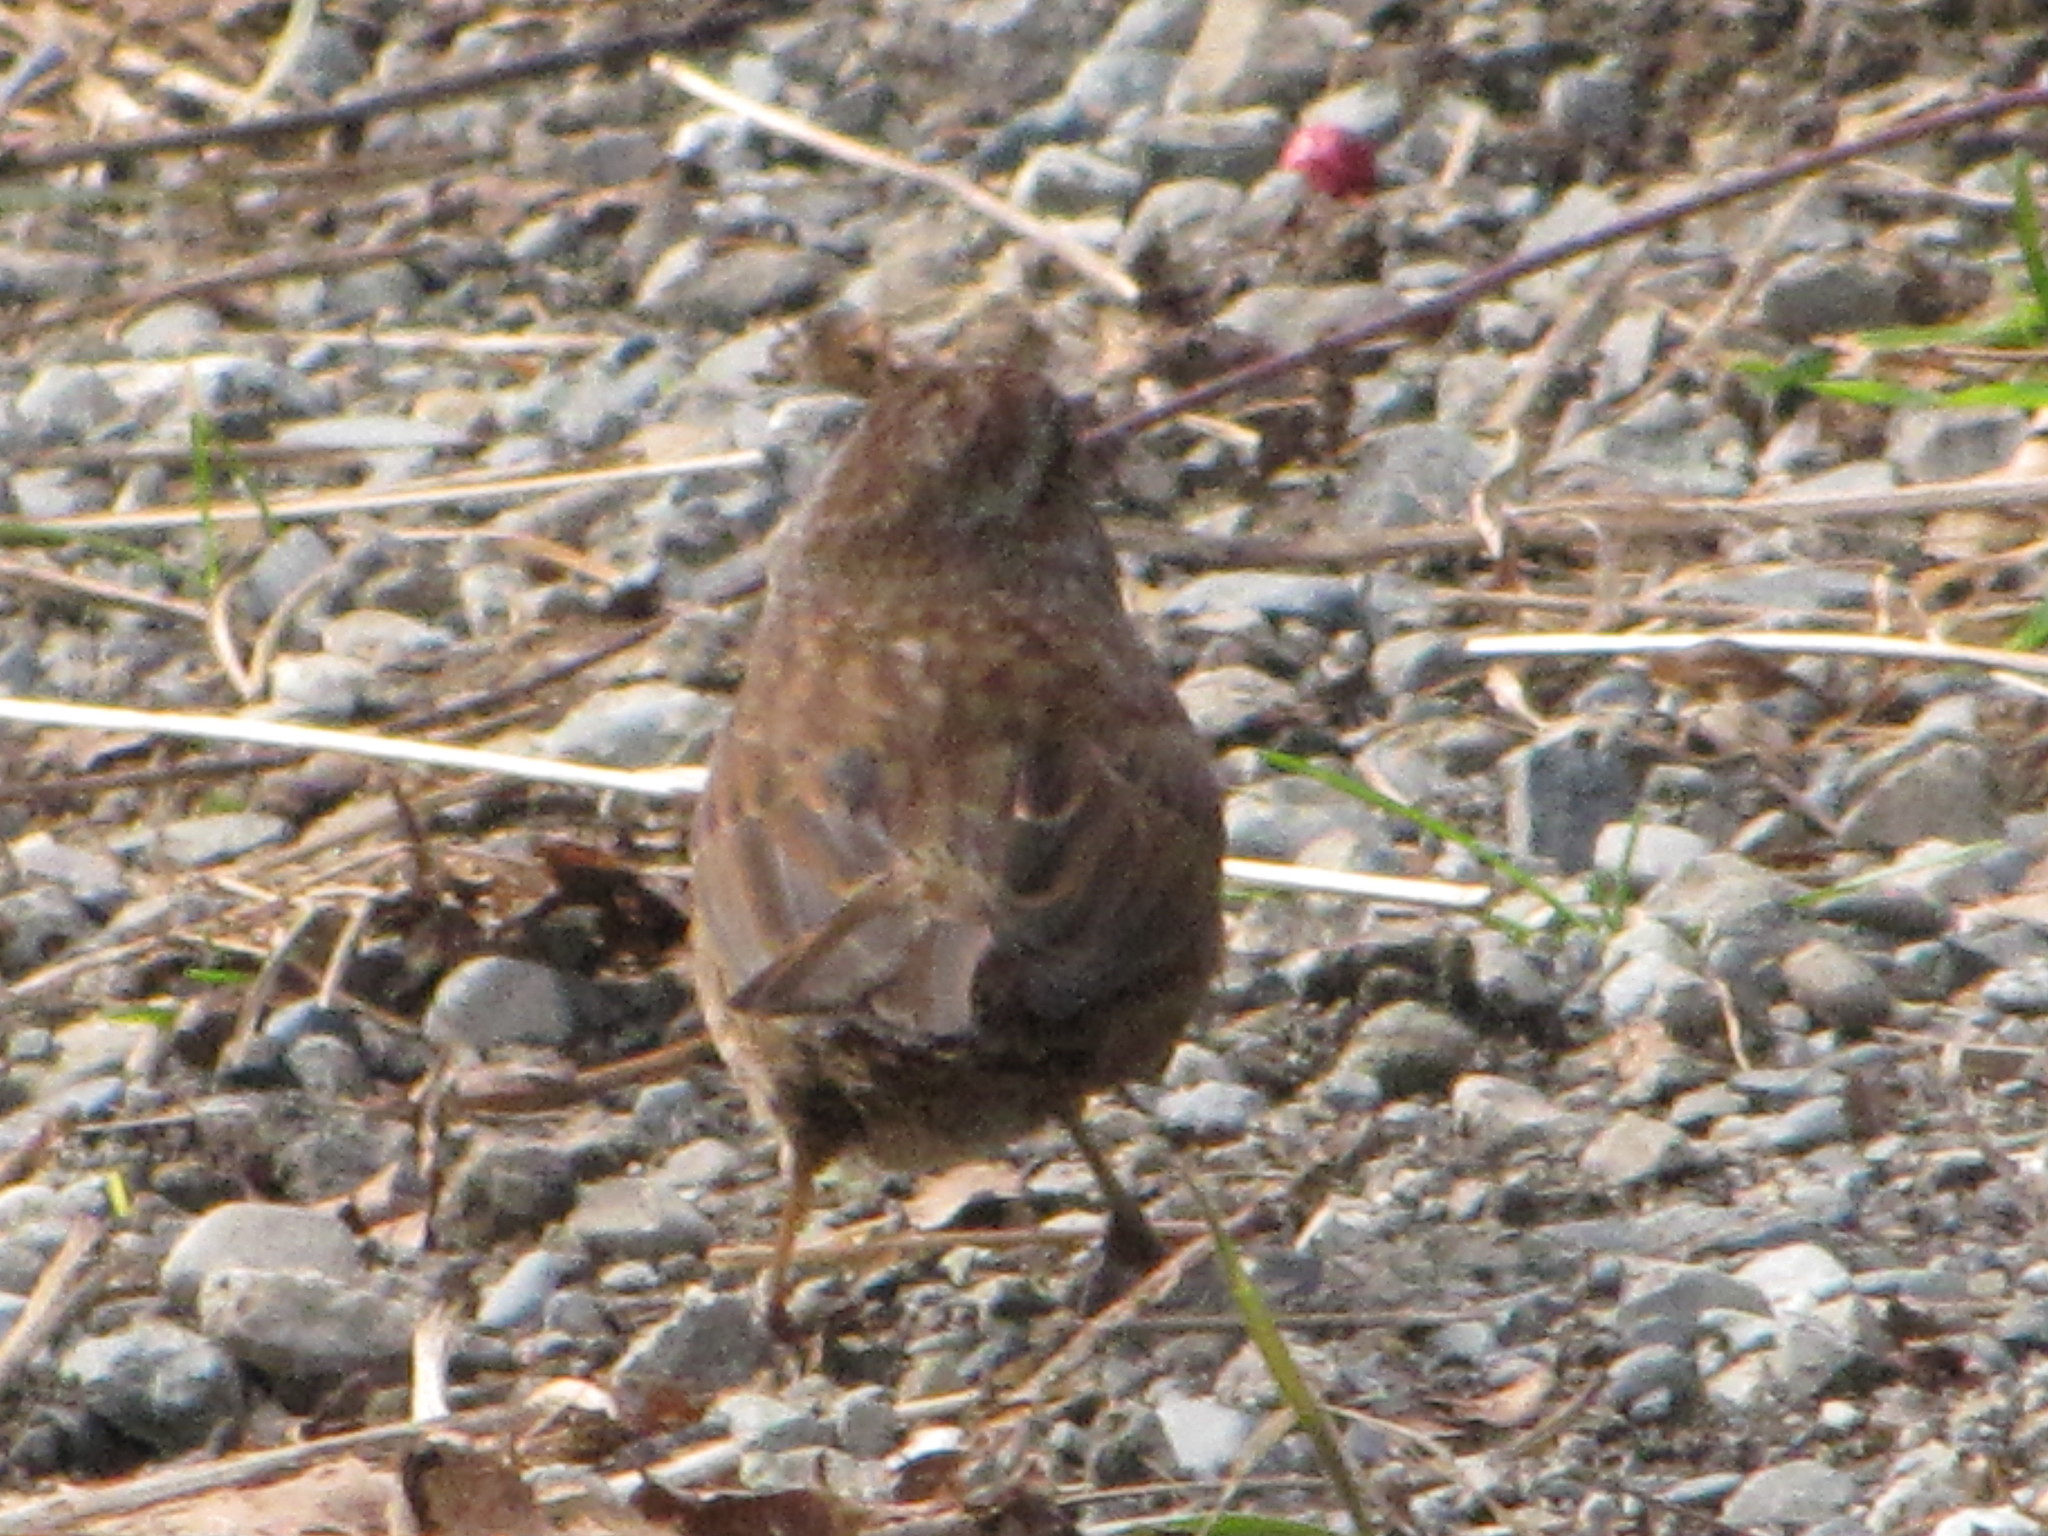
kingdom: Animalia
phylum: Chordata
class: Aves
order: Passeriformes
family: Passerellidae
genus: Melospiza
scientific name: Melospiza melodia
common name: Song sparrow
